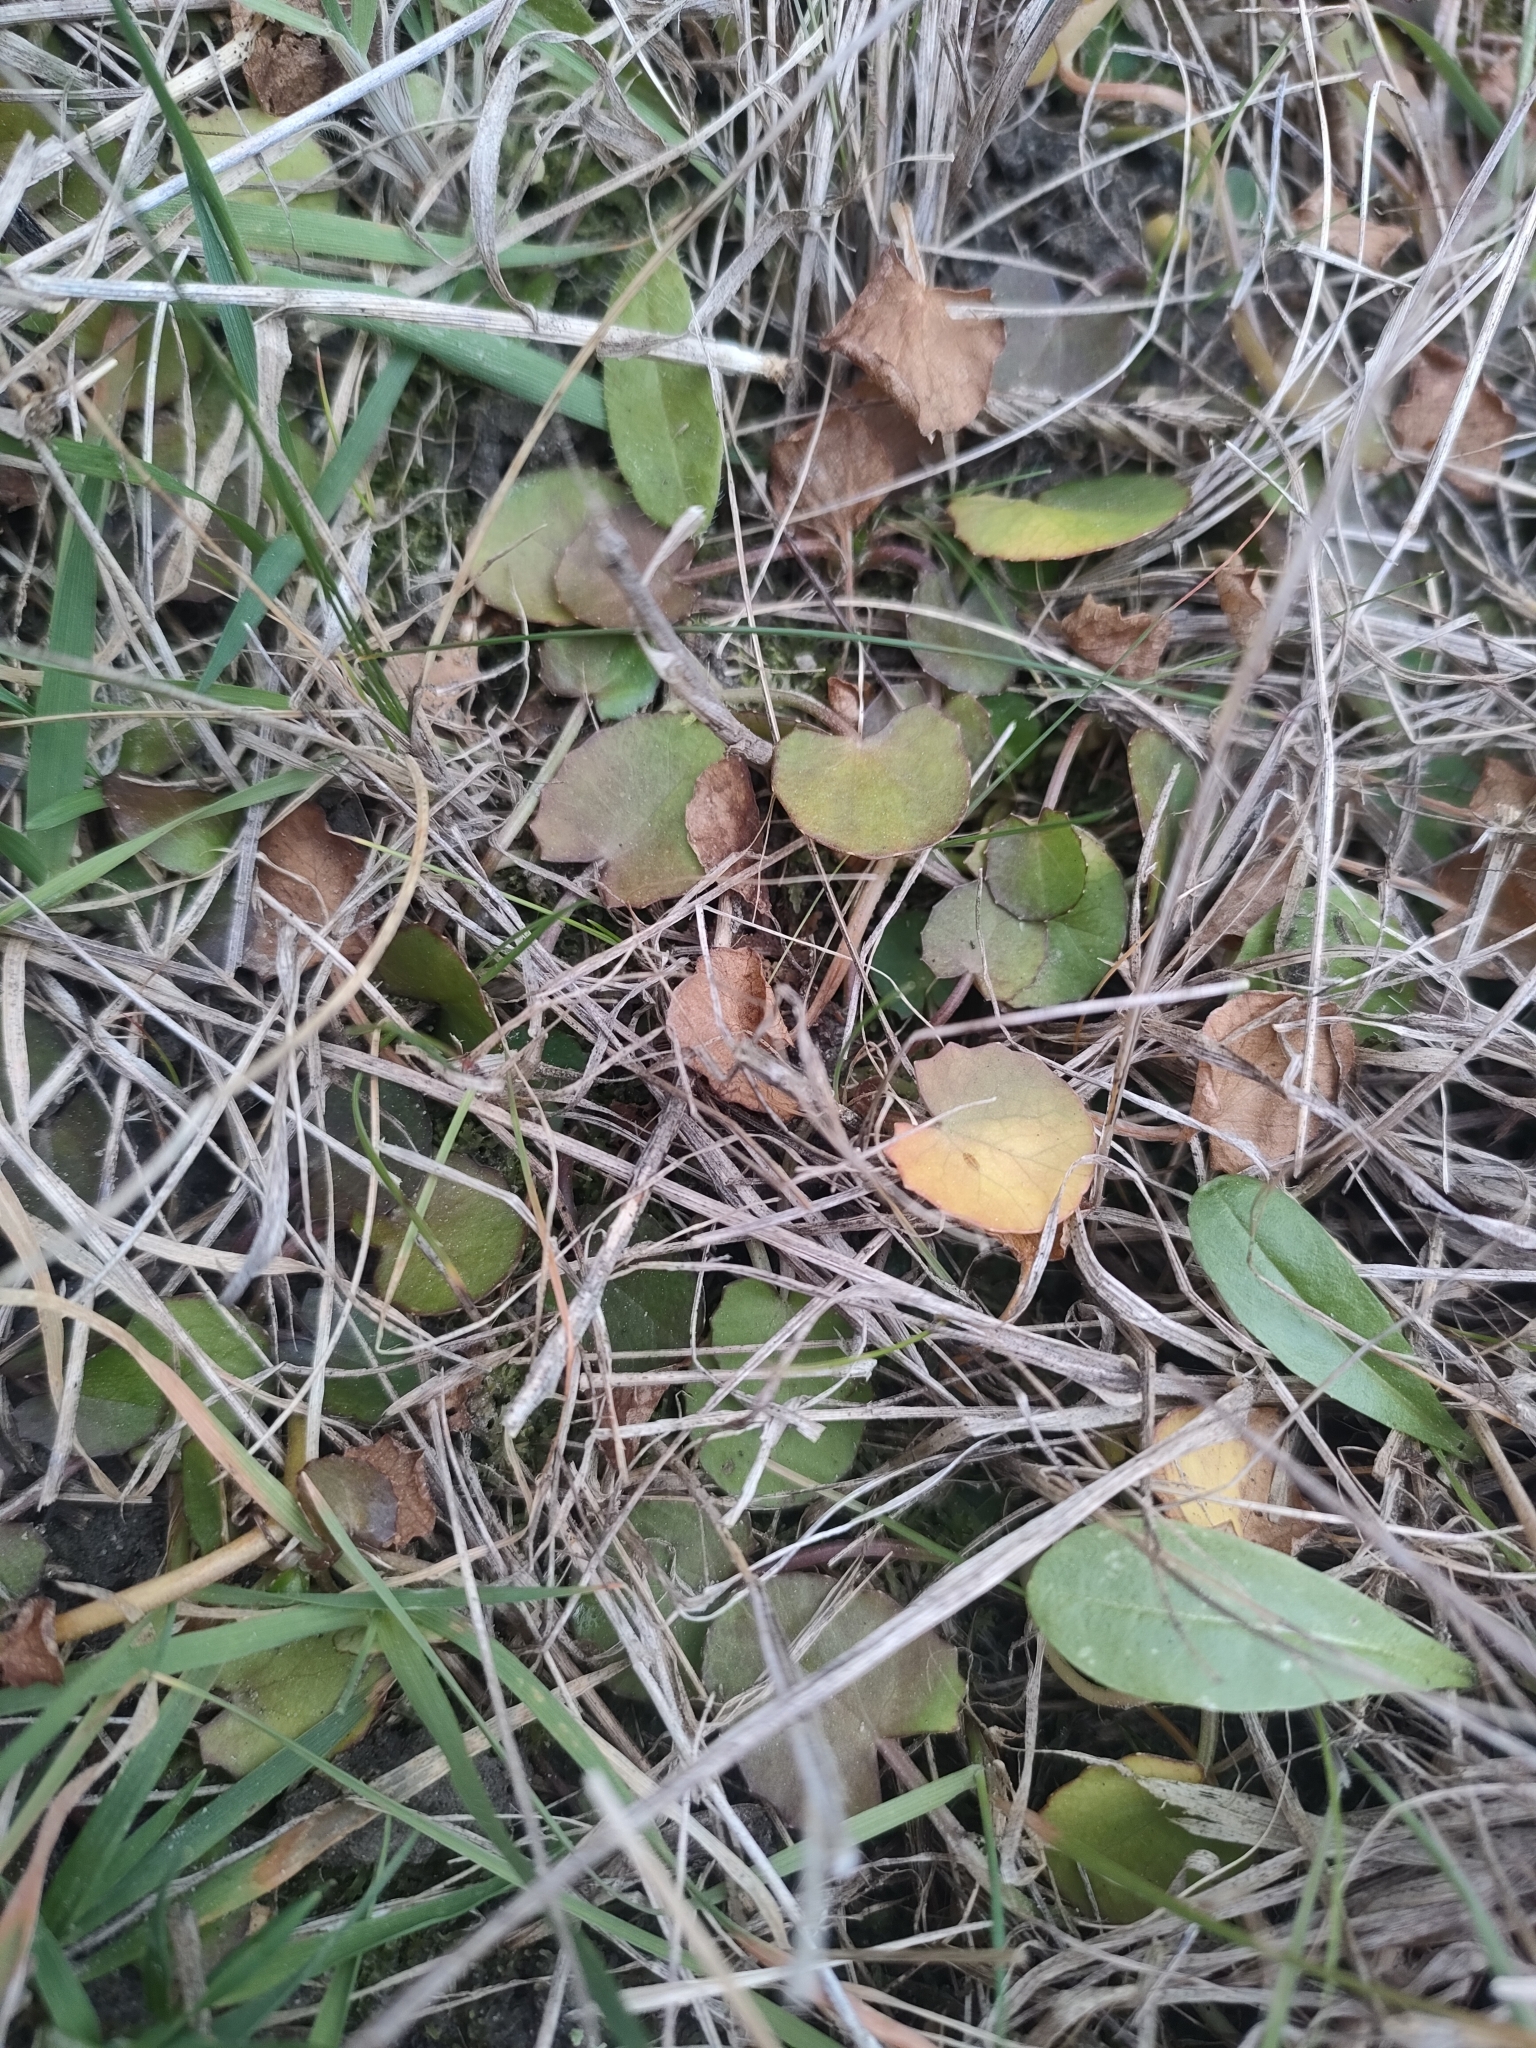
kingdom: Plantae
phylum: Tracheophyta
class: Magnoliopsida
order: Apiales
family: Apiaceae
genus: Centella
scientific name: Centella uniflora
